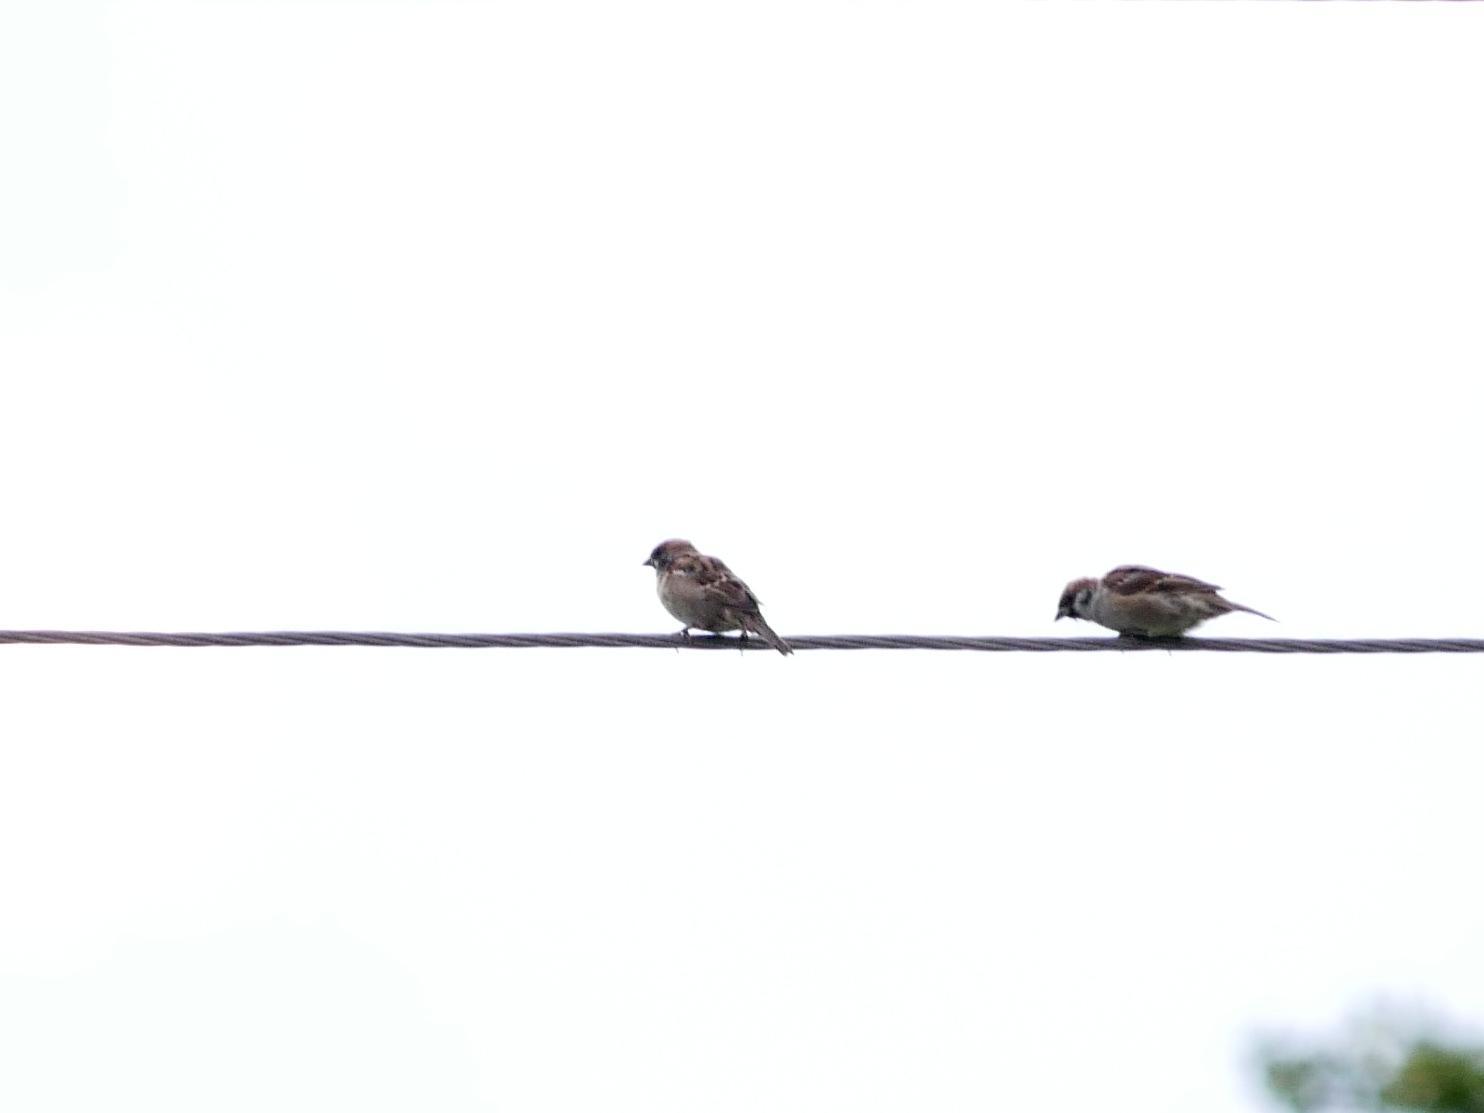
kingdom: Animalia
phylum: Chordata
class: Aves
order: Passeriformes
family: Passeridae
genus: Passer
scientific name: Passer montanus
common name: Eurasian tree sparrow
